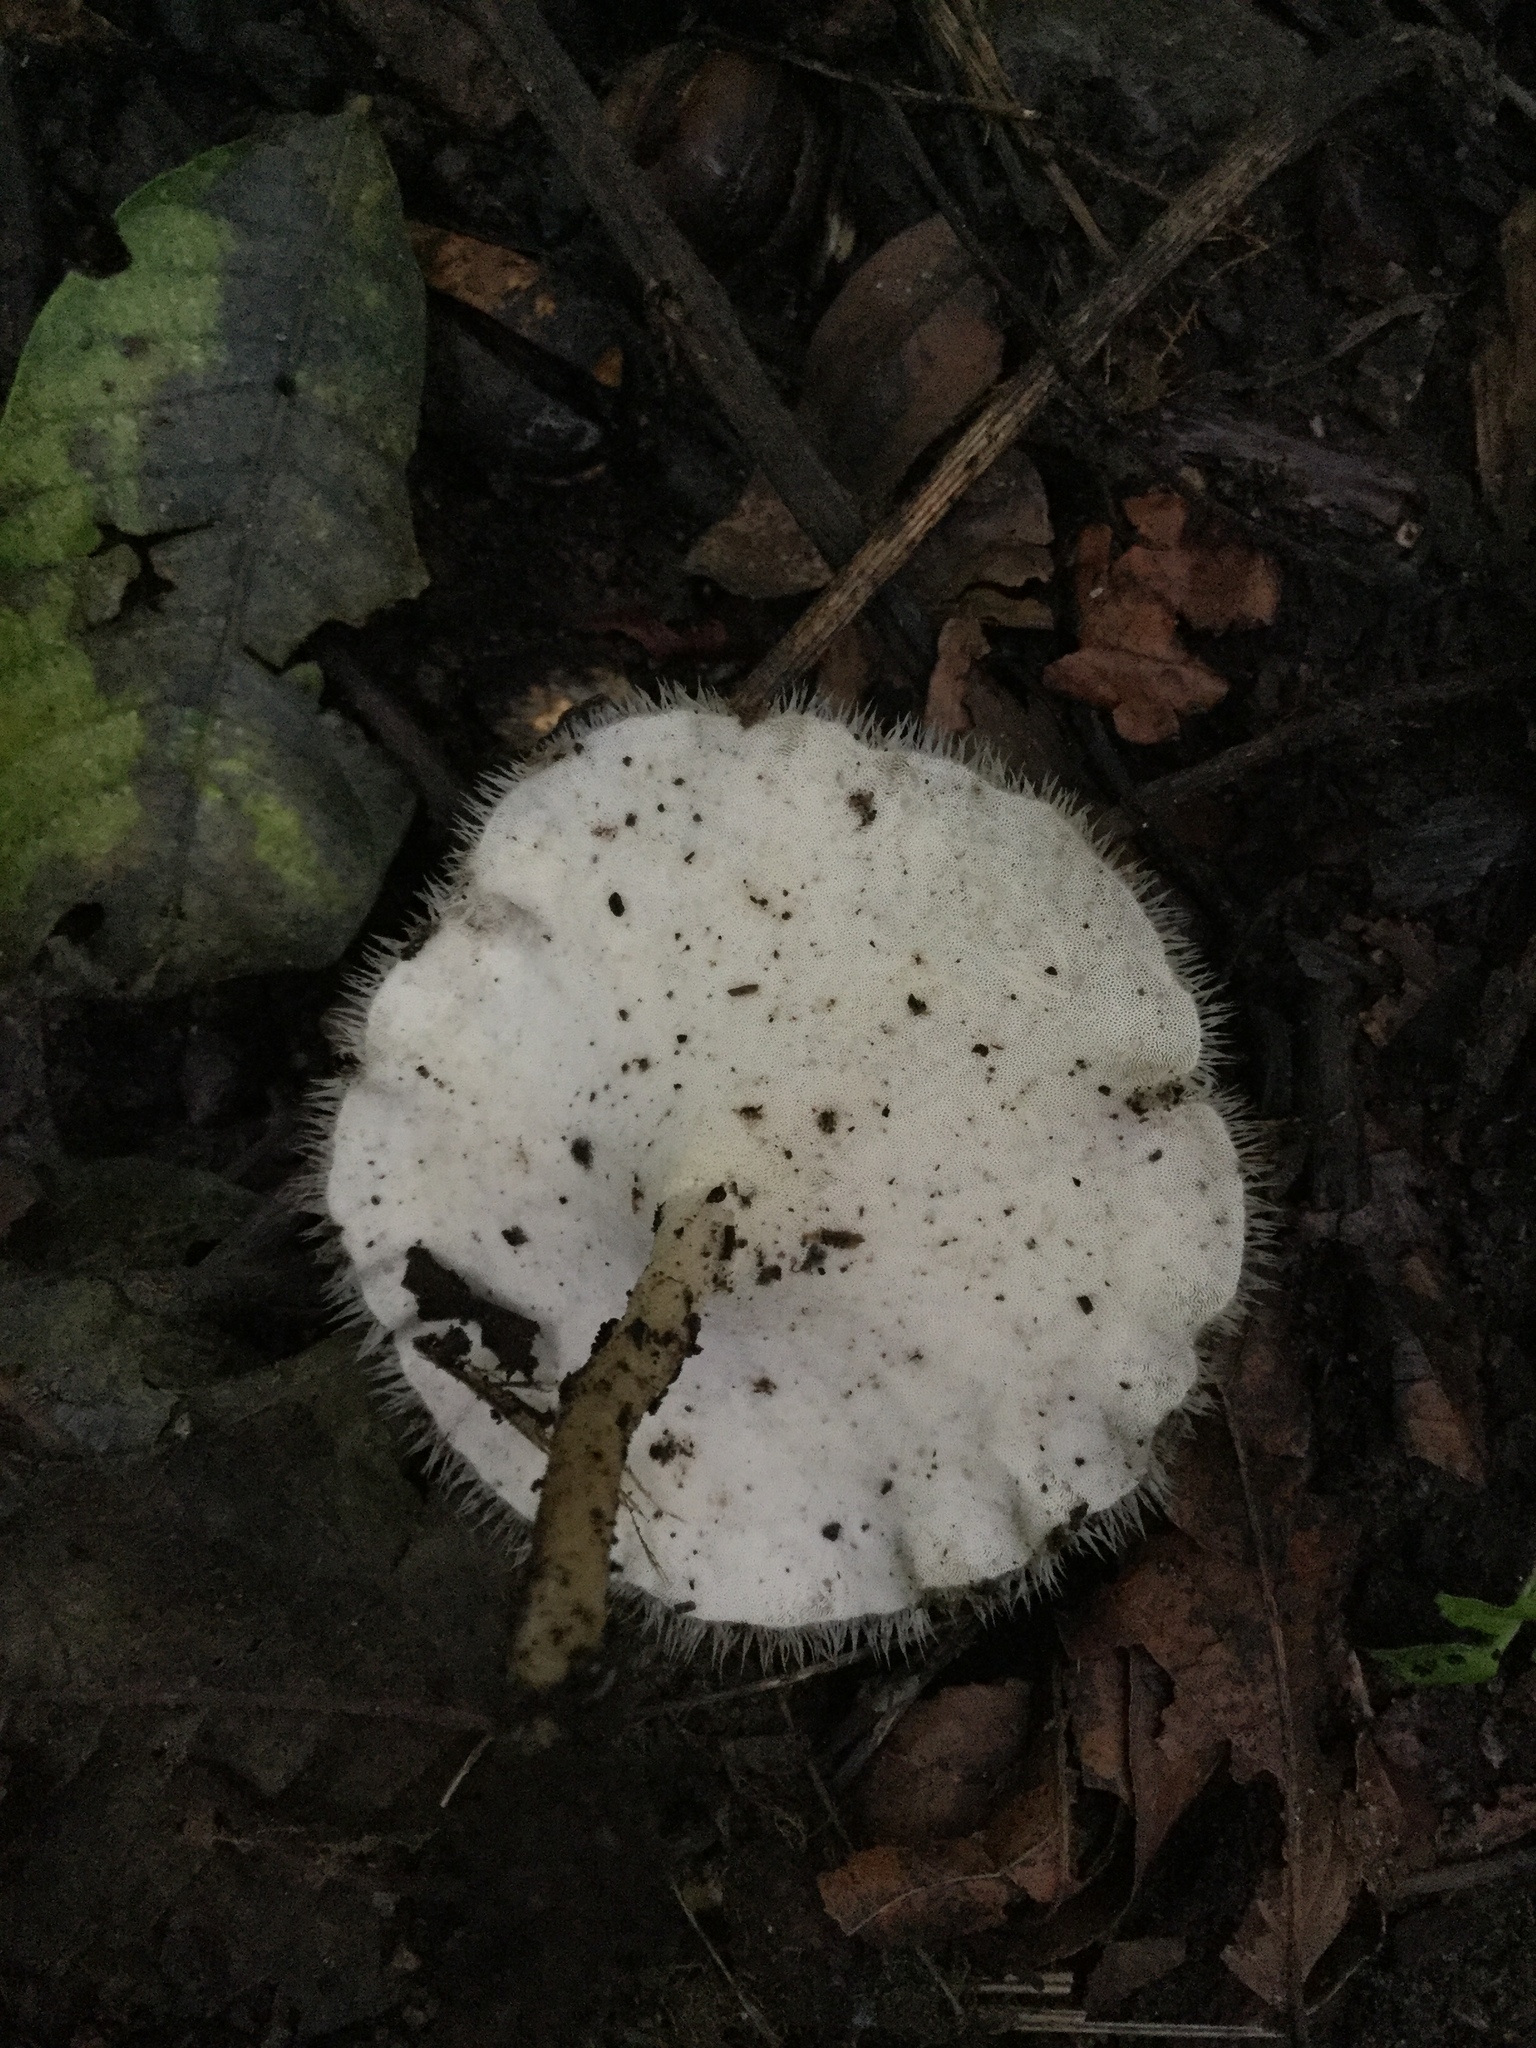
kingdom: Fungi
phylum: Basidiomycota
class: Agaricomycetes
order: Polyporales
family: Polyporaceae
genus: Lentinus
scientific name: Lentinus flexipes
